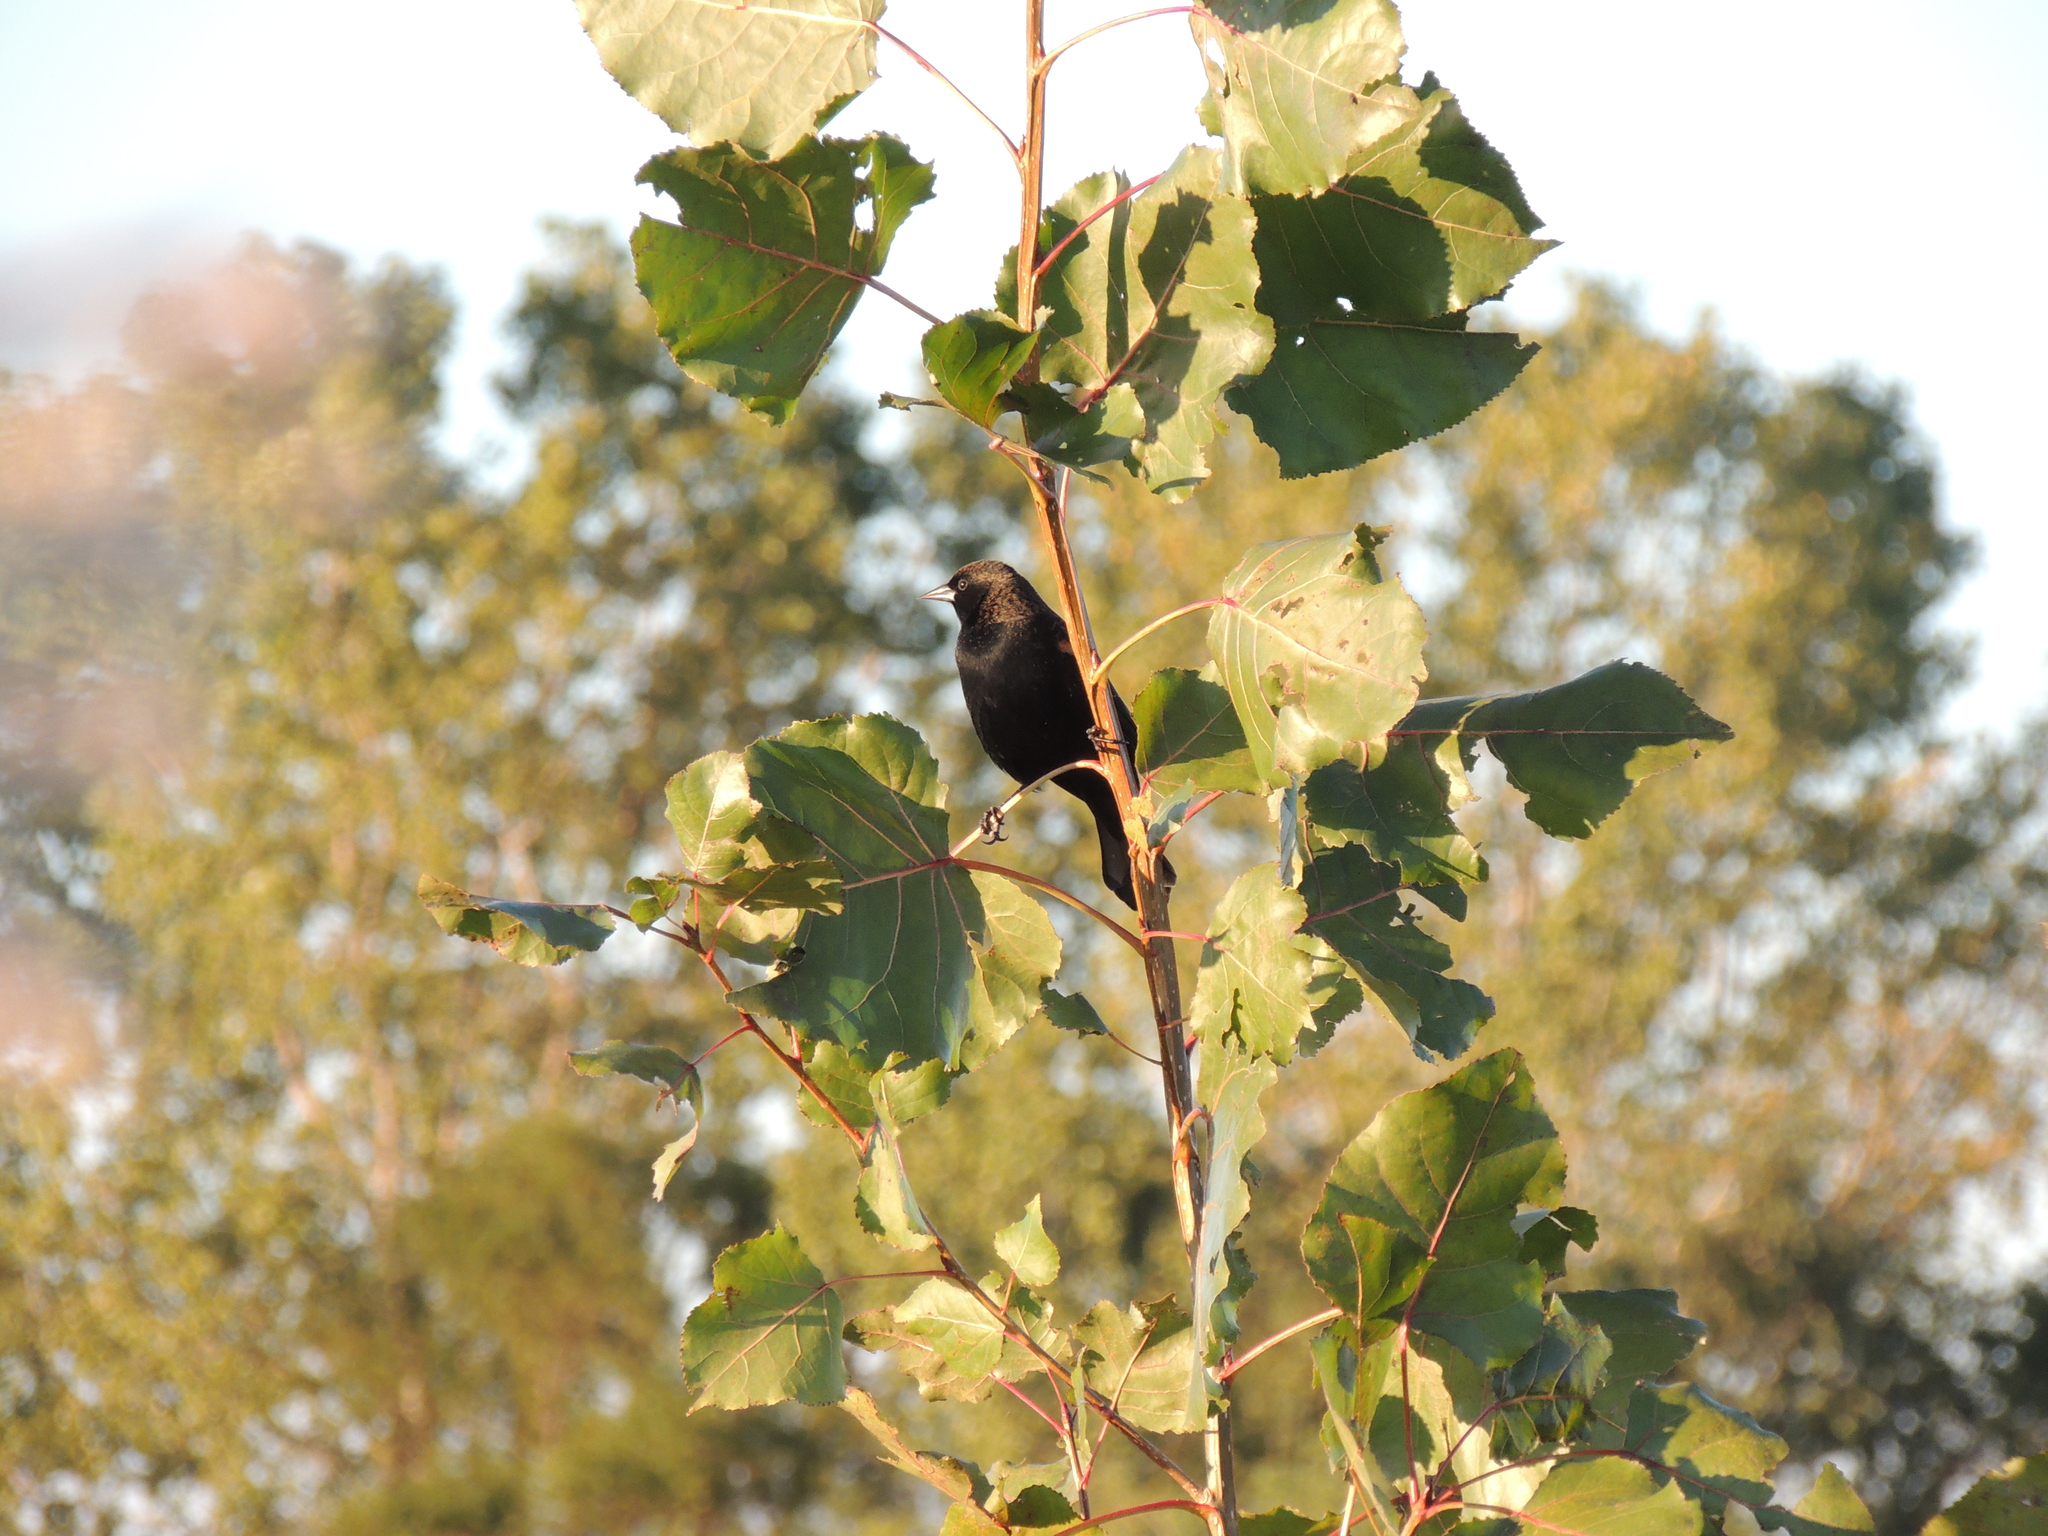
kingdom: Animalia
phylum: Chordata
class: Aves
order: Passeriformes
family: Icteridae
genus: Agelaius
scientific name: Agelaius phoeniceus
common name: Red-winged blackbird
